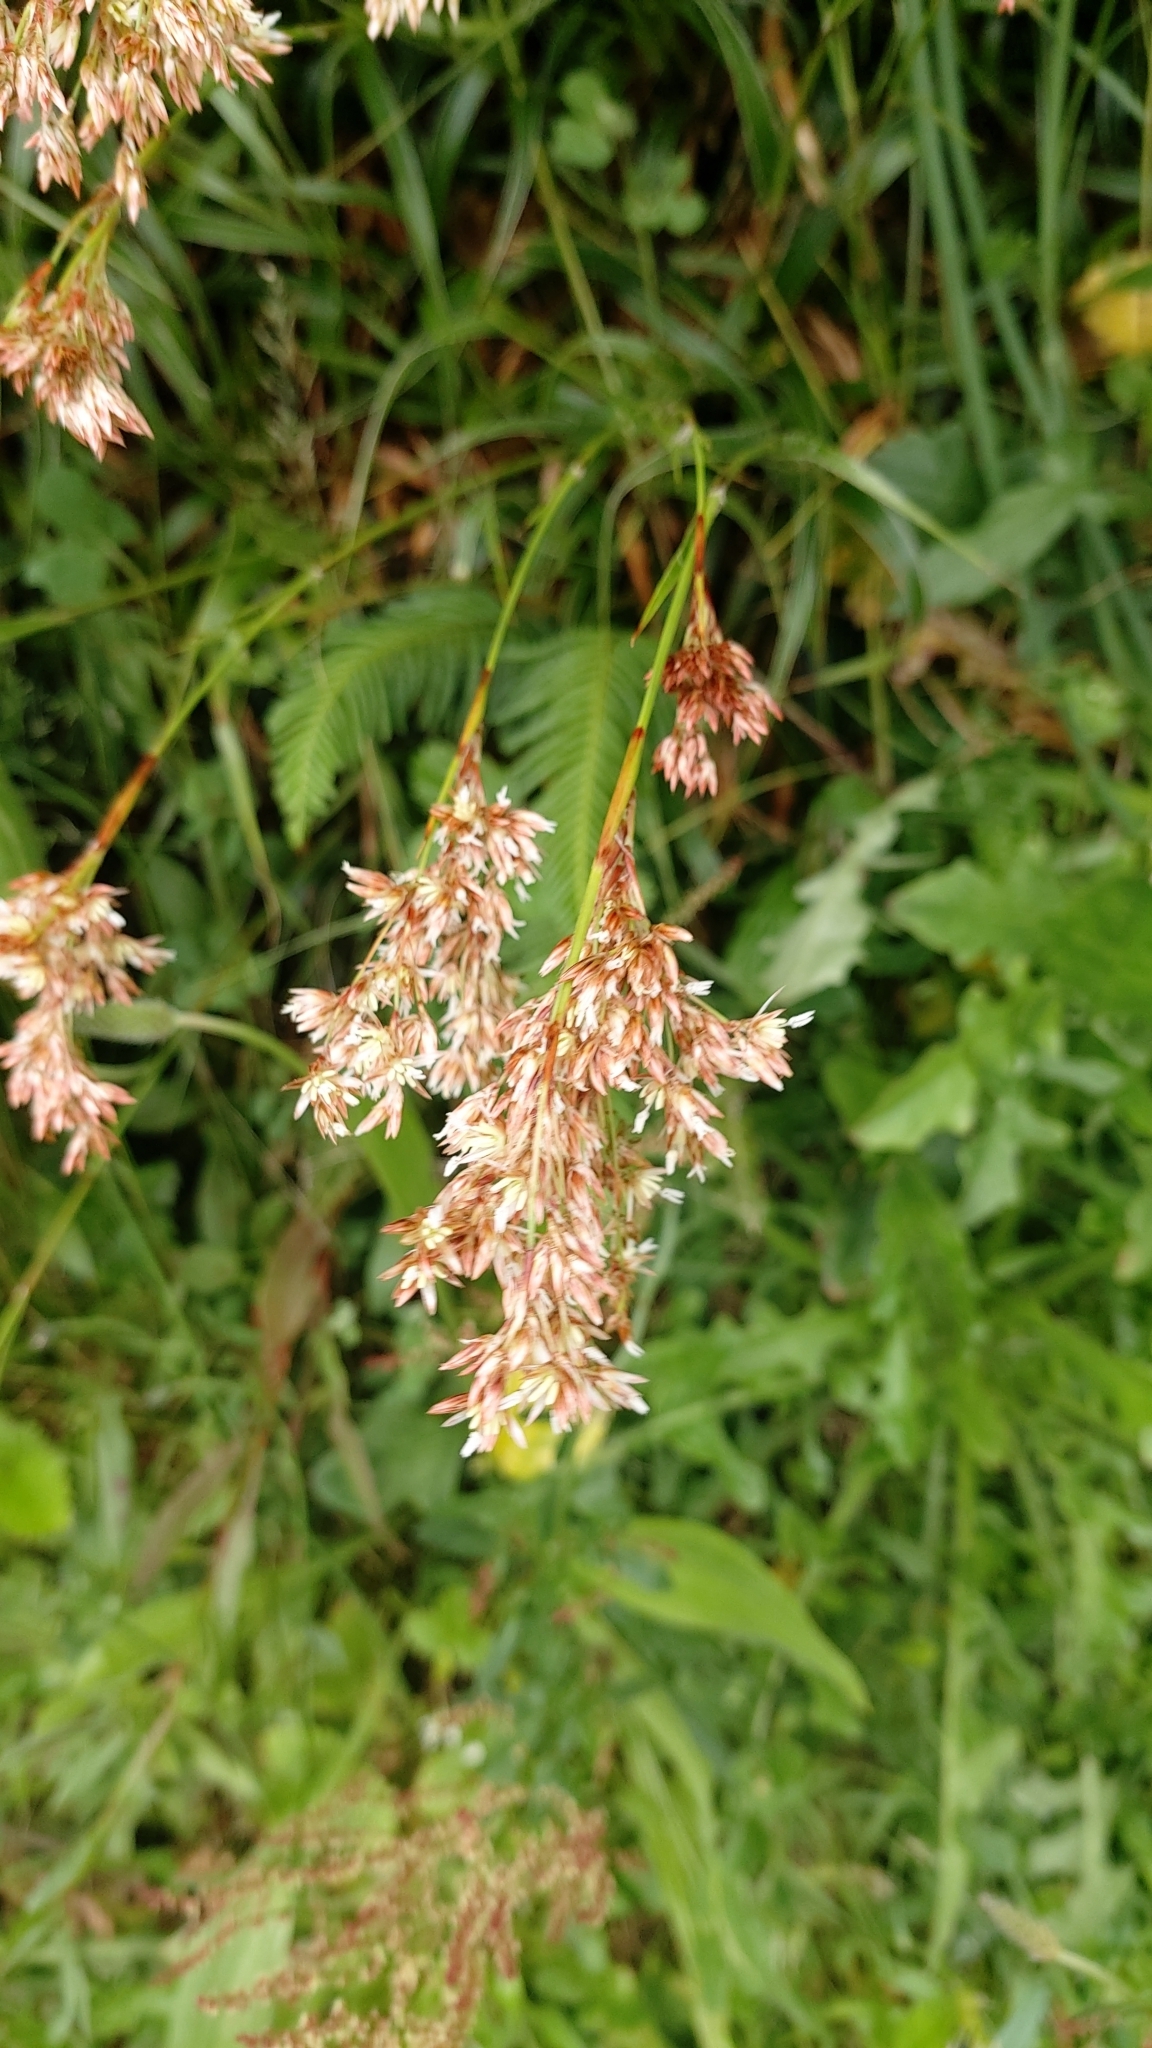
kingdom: Plantae
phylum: Tracheophyta
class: Liliopsida
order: Poales
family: Juncaceae
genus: Luzula
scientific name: Luzula purpureosplendens
